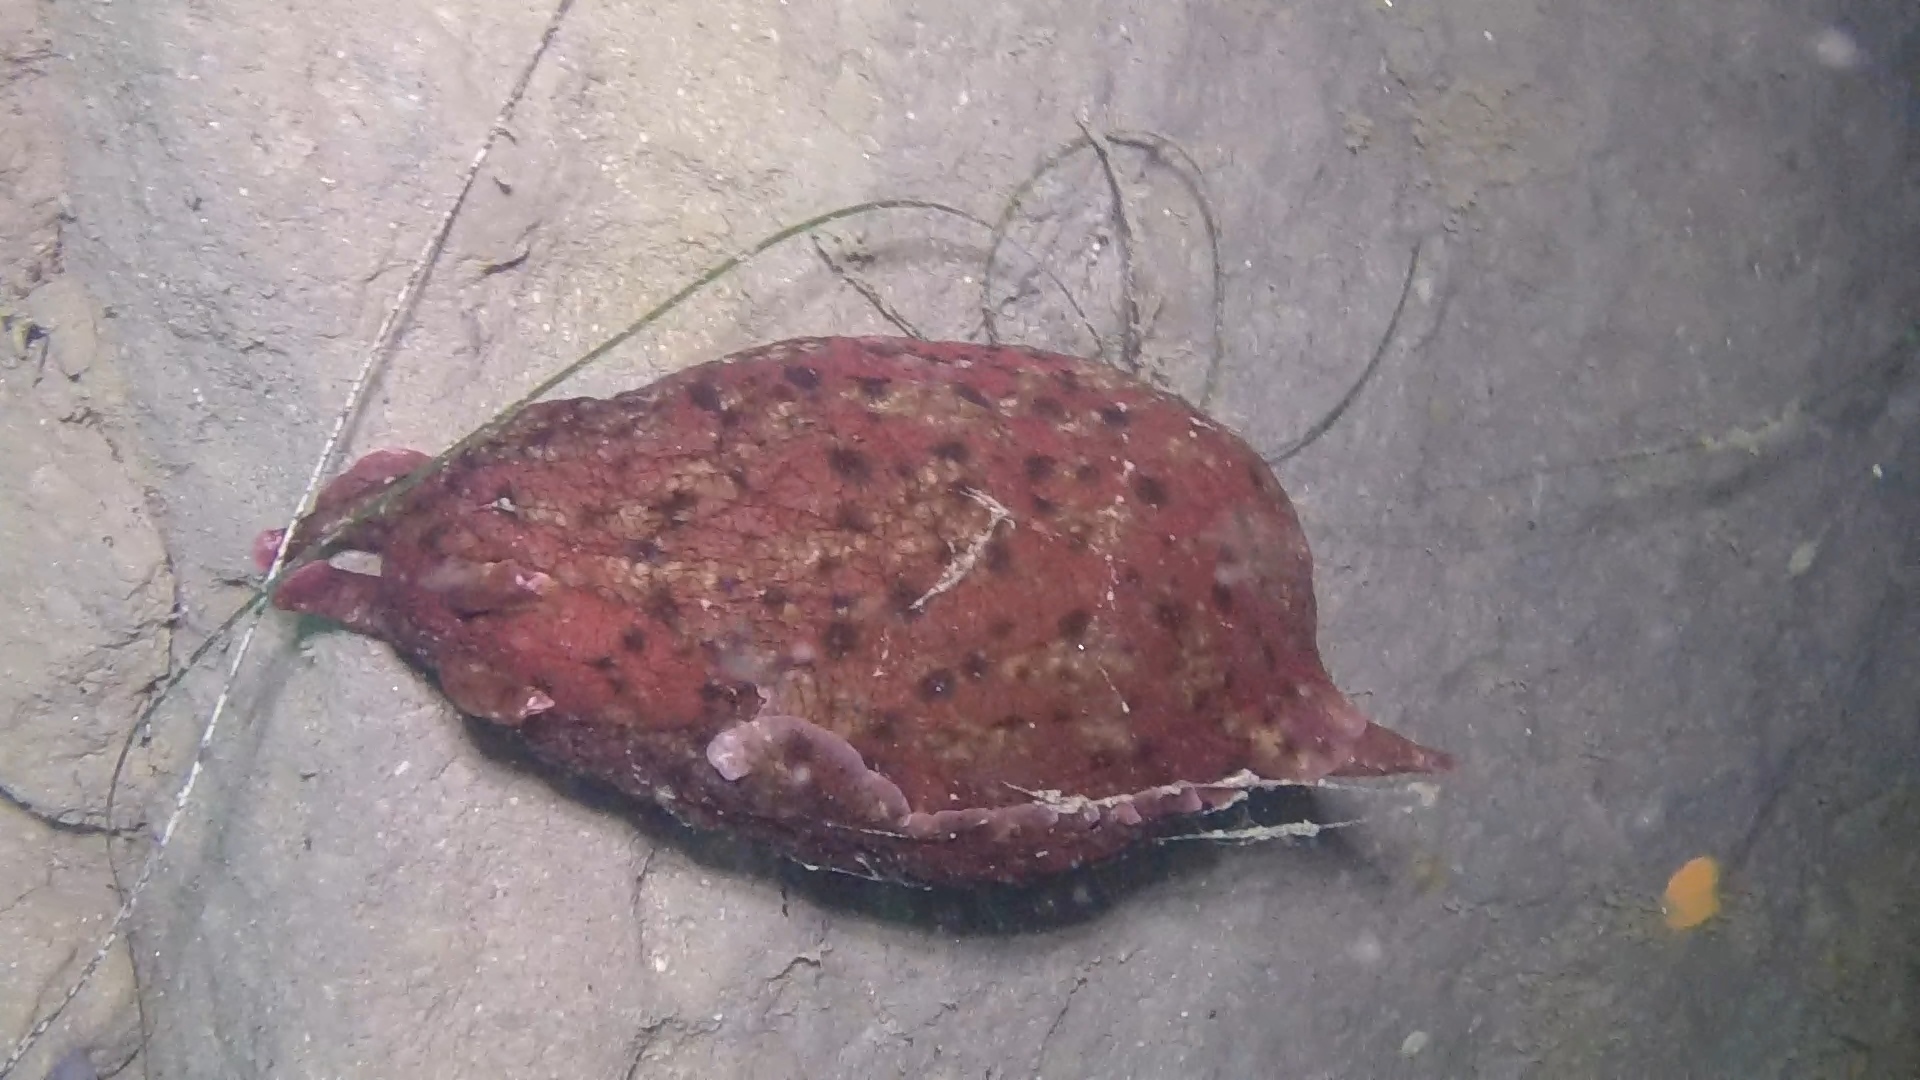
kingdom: Animalia
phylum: Mollusca
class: Gastropoda
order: Aplysiida
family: Aplysiidae
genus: Aplysia
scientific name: Aplysia californica
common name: California seahare
